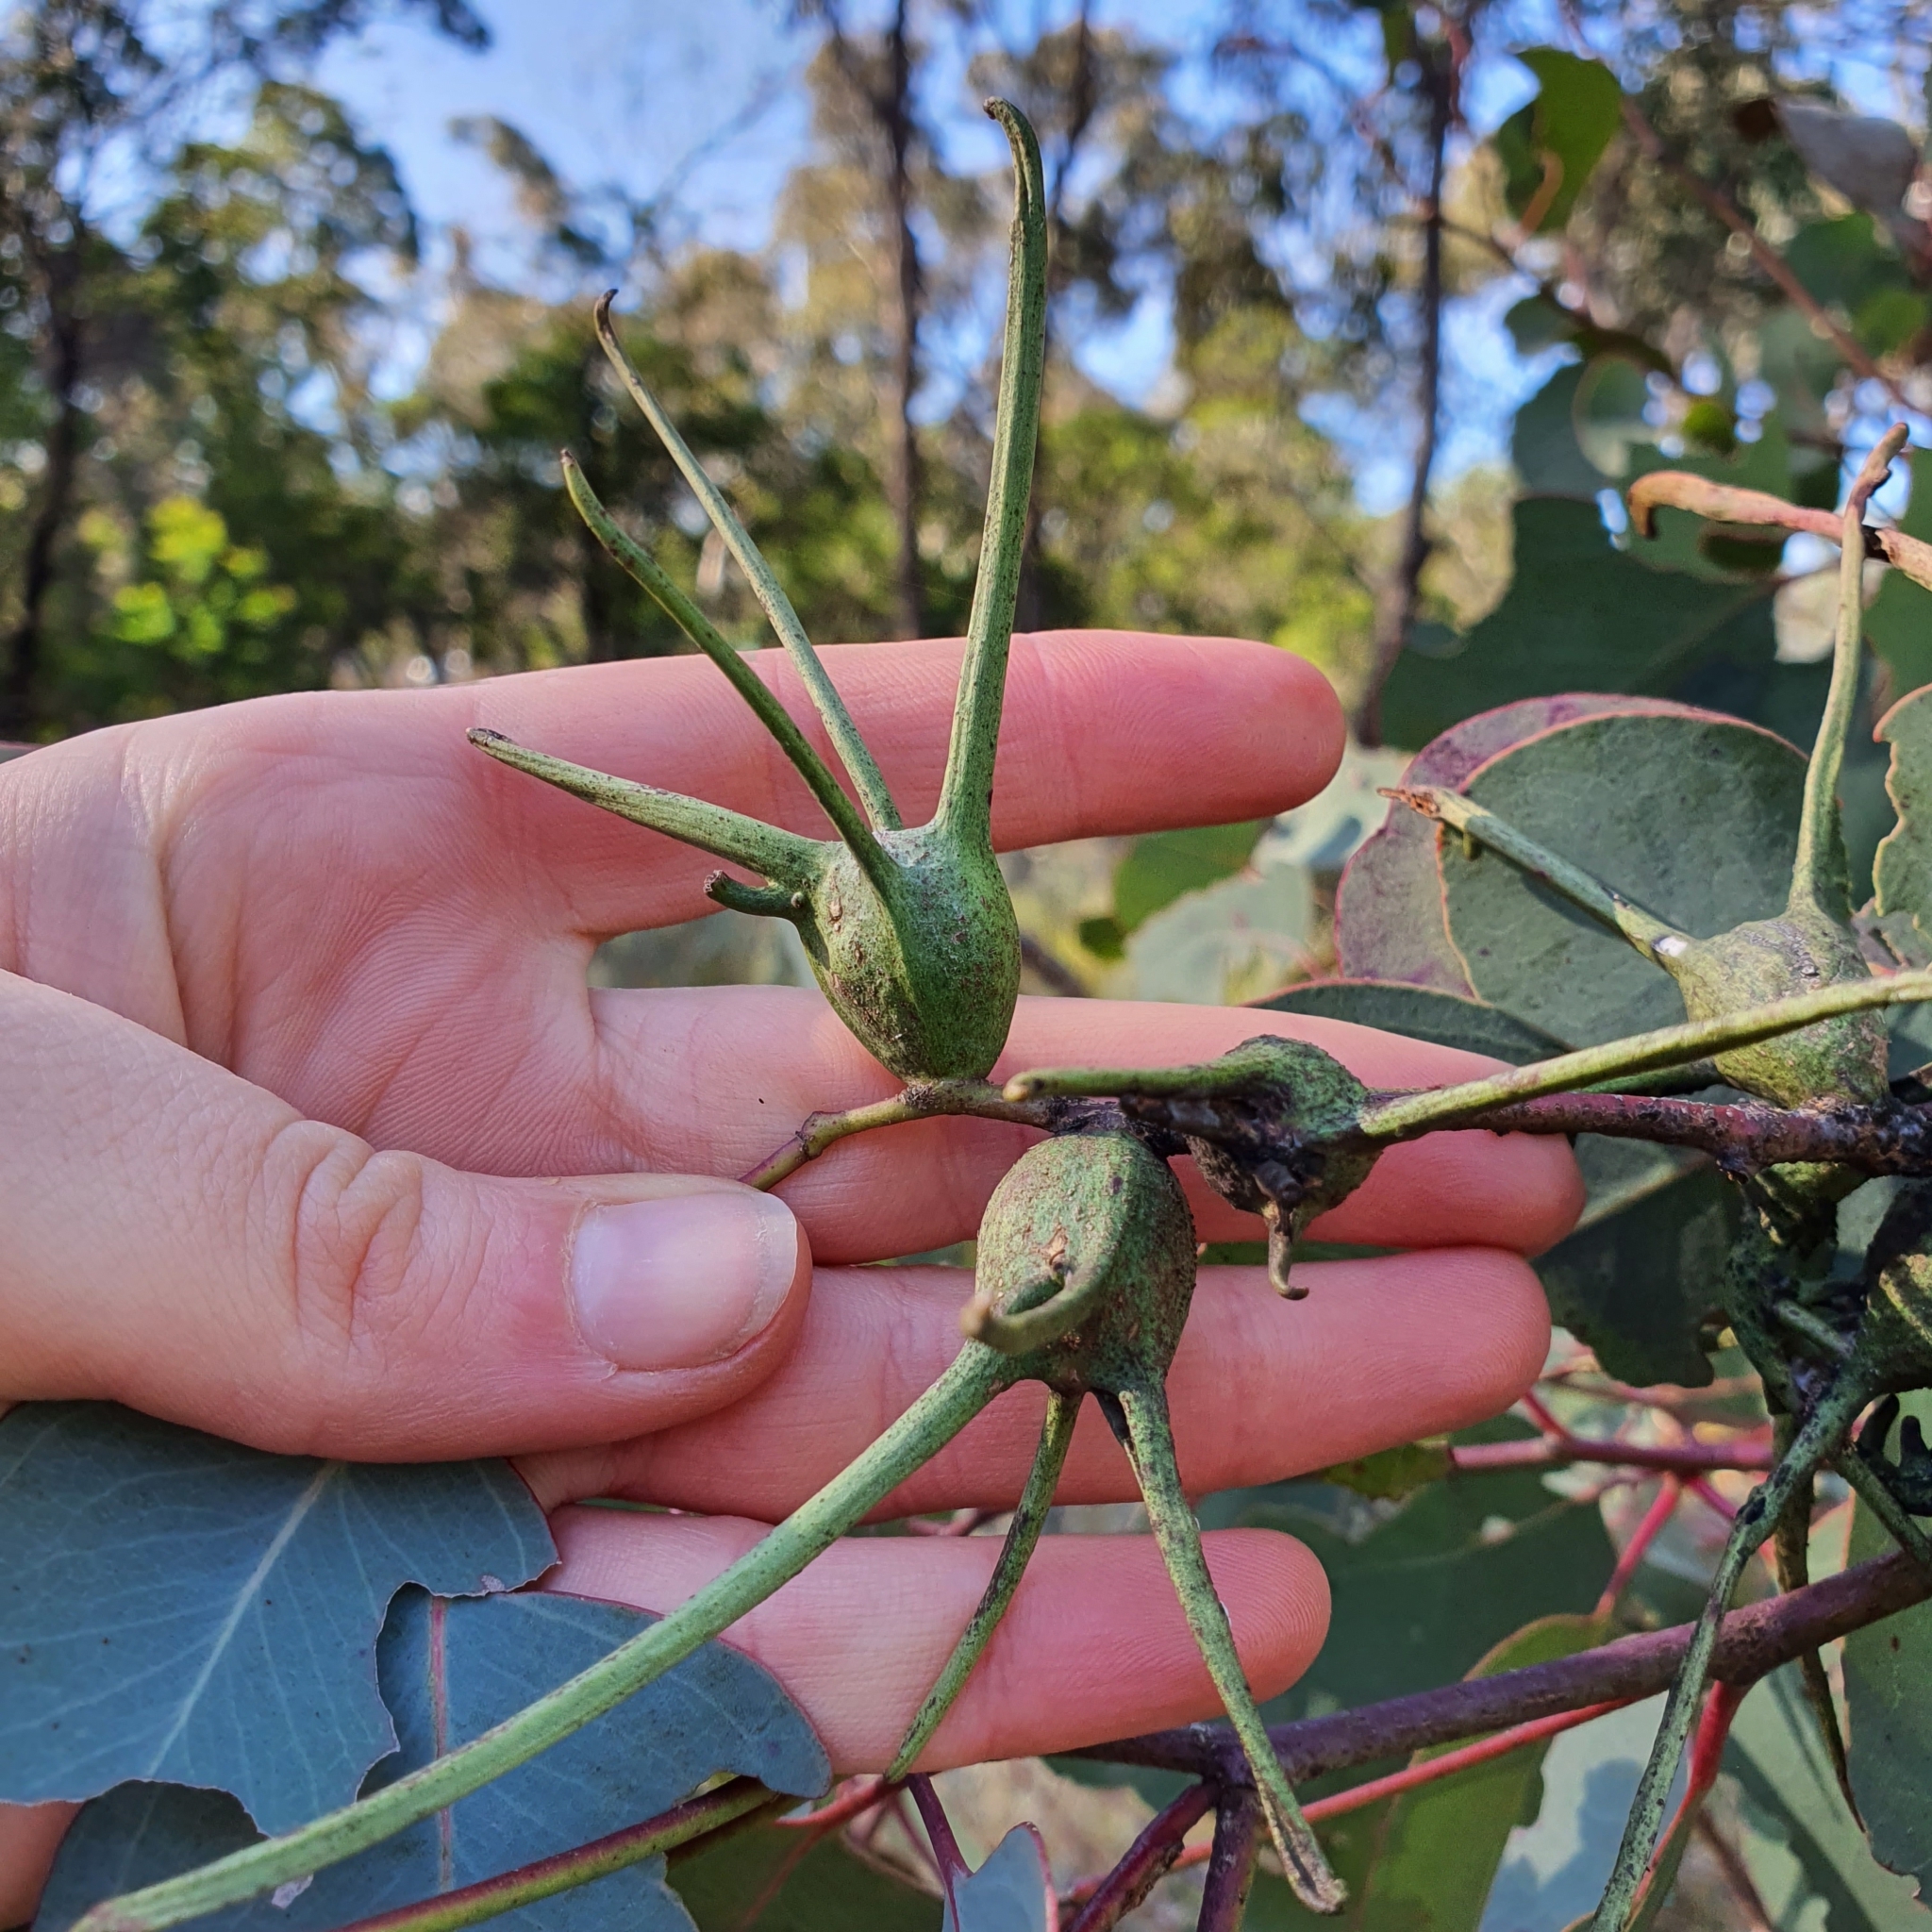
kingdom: Animalia
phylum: Arthropoda
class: Insecta
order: Hemiptera
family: Eriococcidae
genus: Apiomorpha
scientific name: Apiomorpha munita
